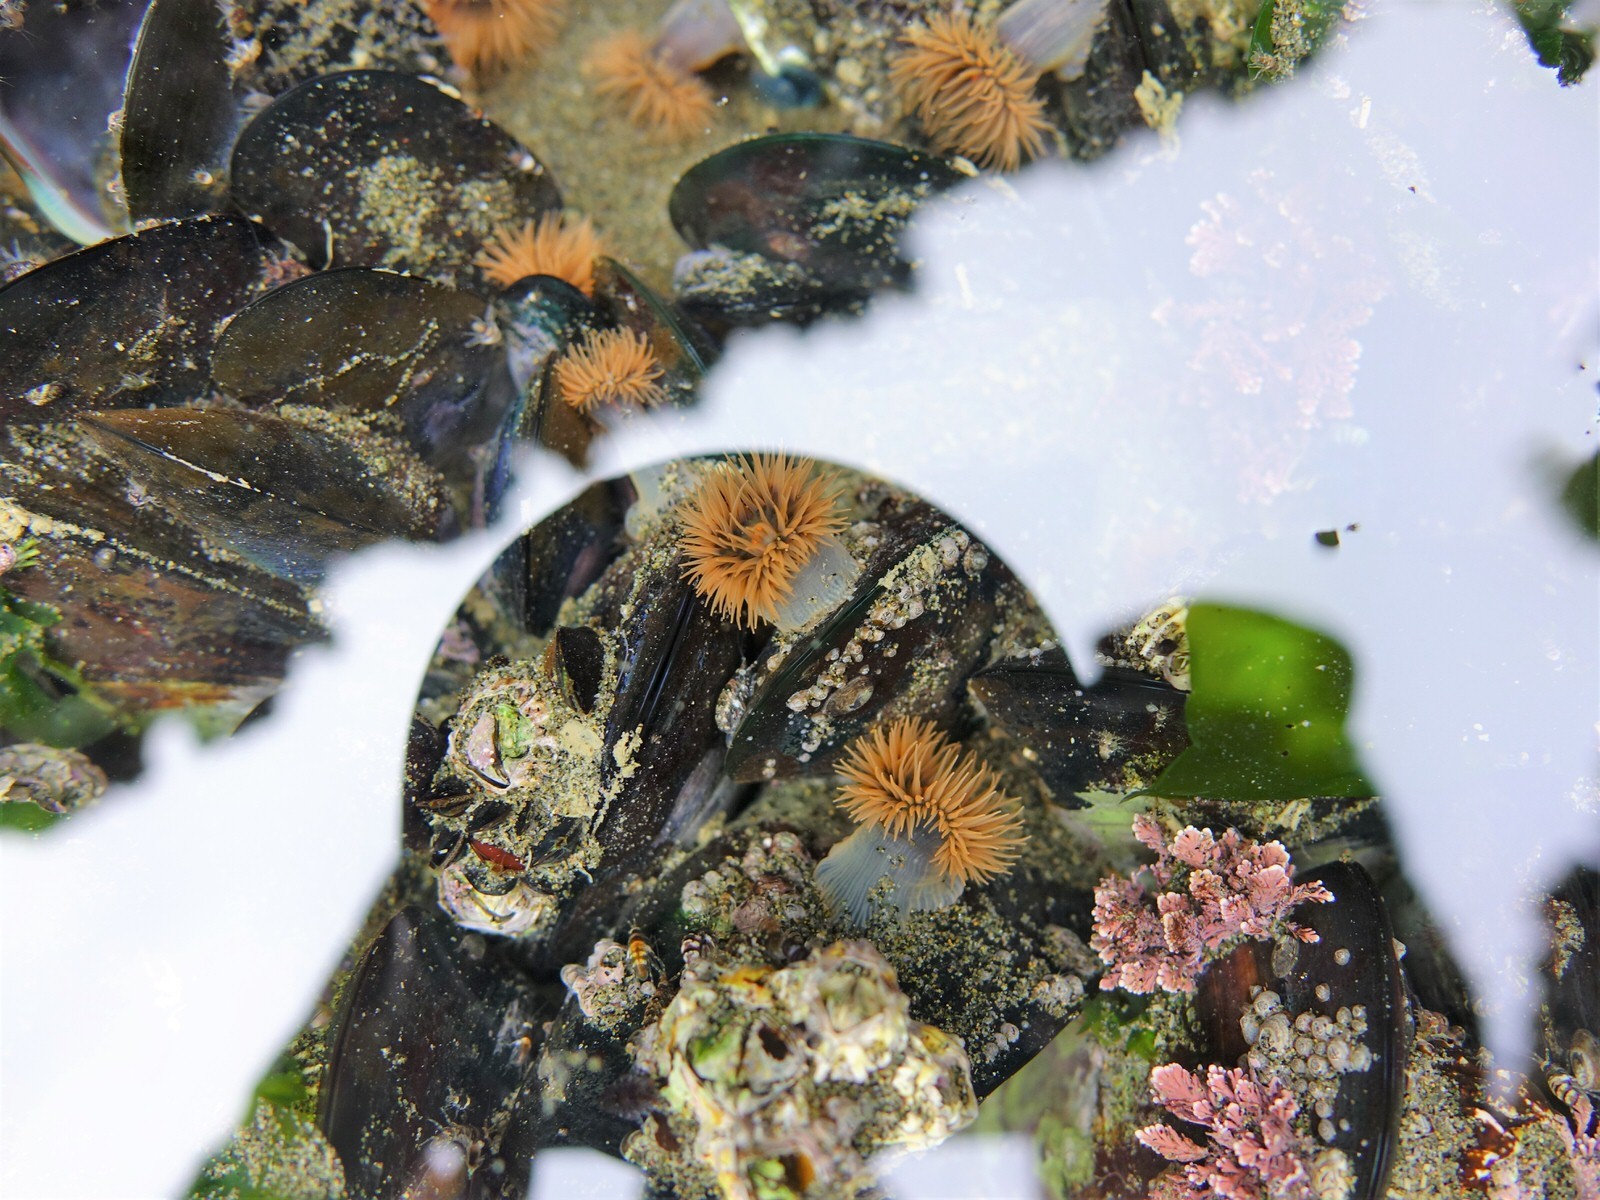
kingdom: Animalia
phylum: Cnidaria
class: Anthozoa
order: Actiniaria
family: Diadumenidae
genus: Diadumene
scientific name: Diadumene neozelanica
